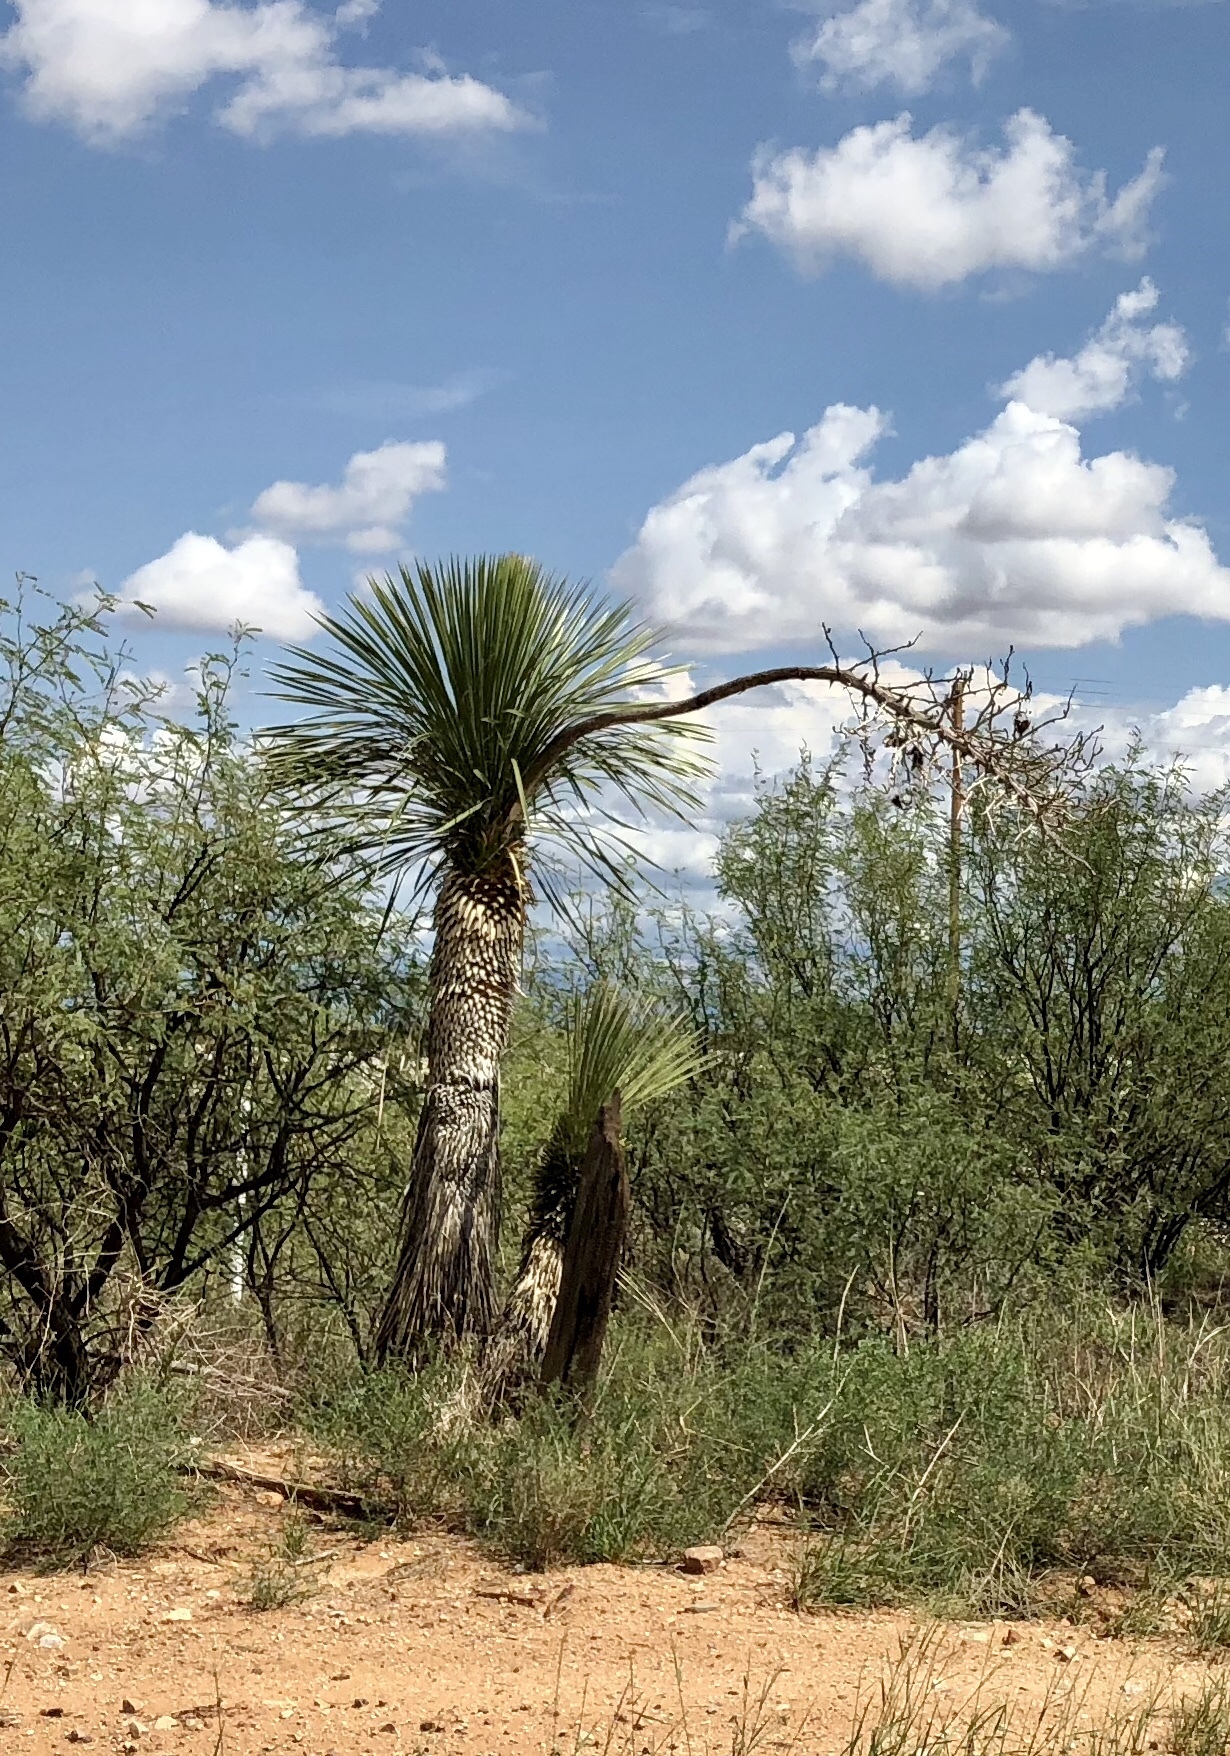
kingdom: Plantae
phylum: Tracheophyta
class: Liliopsida
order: Asparagales
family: Asparagaceae
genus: Yucca
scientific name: Yucca elata
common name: Palmella
